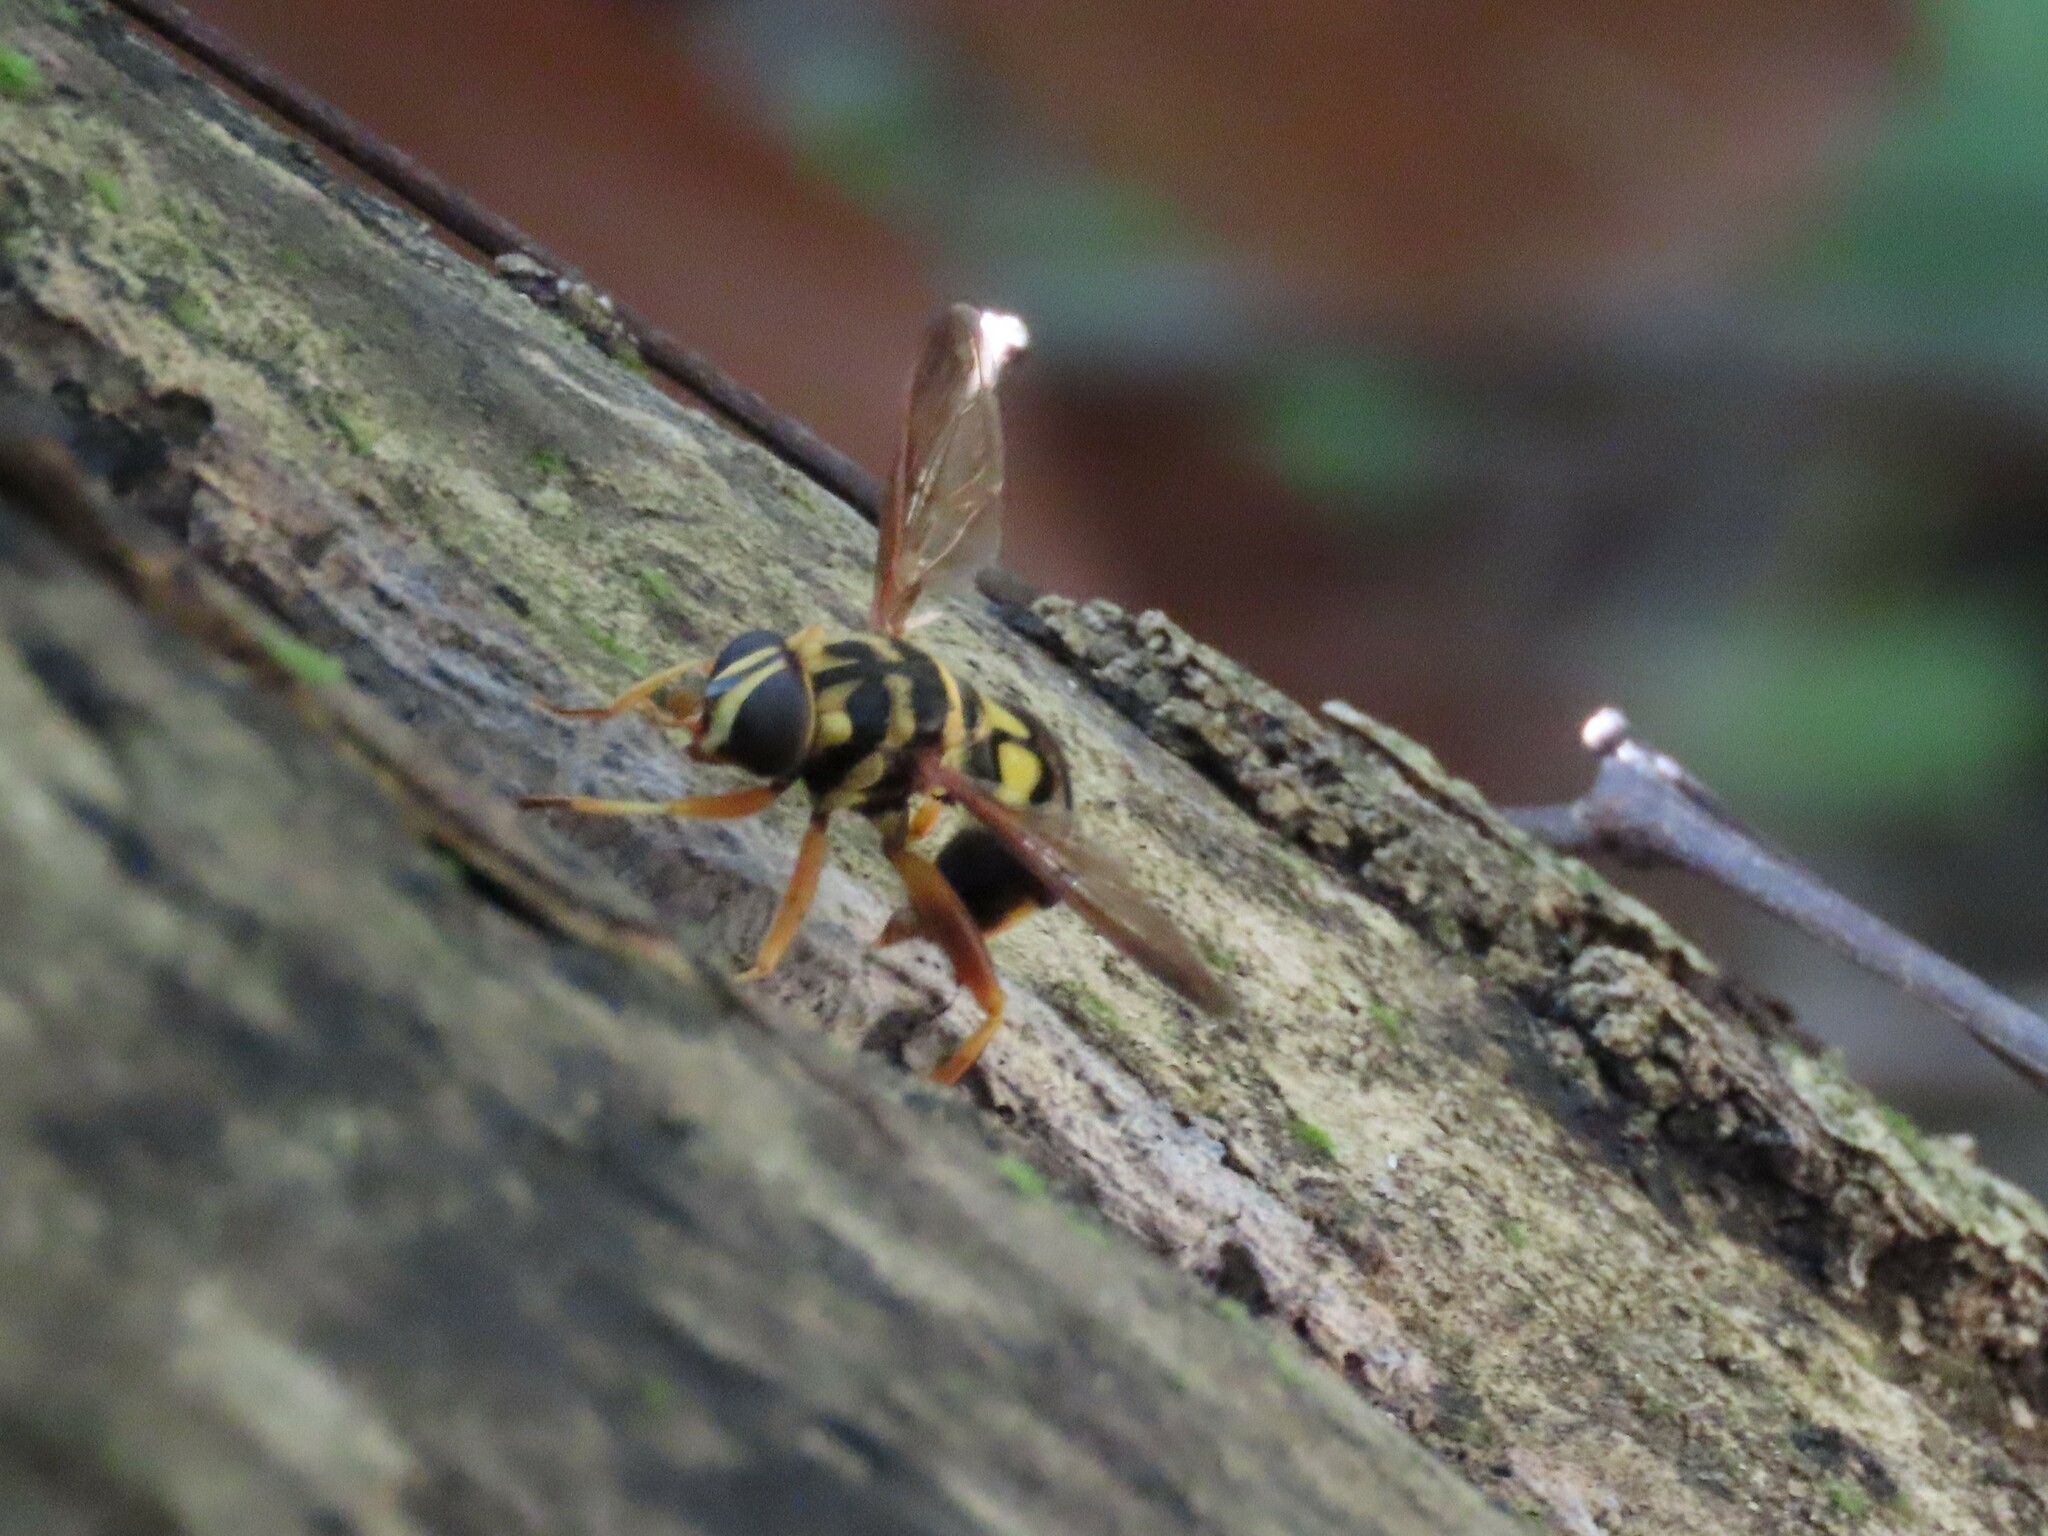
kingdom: Animalia
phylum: Arthropoda
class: Insecta
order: Diptera
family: Syrphidae
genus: Milesia
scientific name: Milesia virginiensis
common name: Virginia giant
